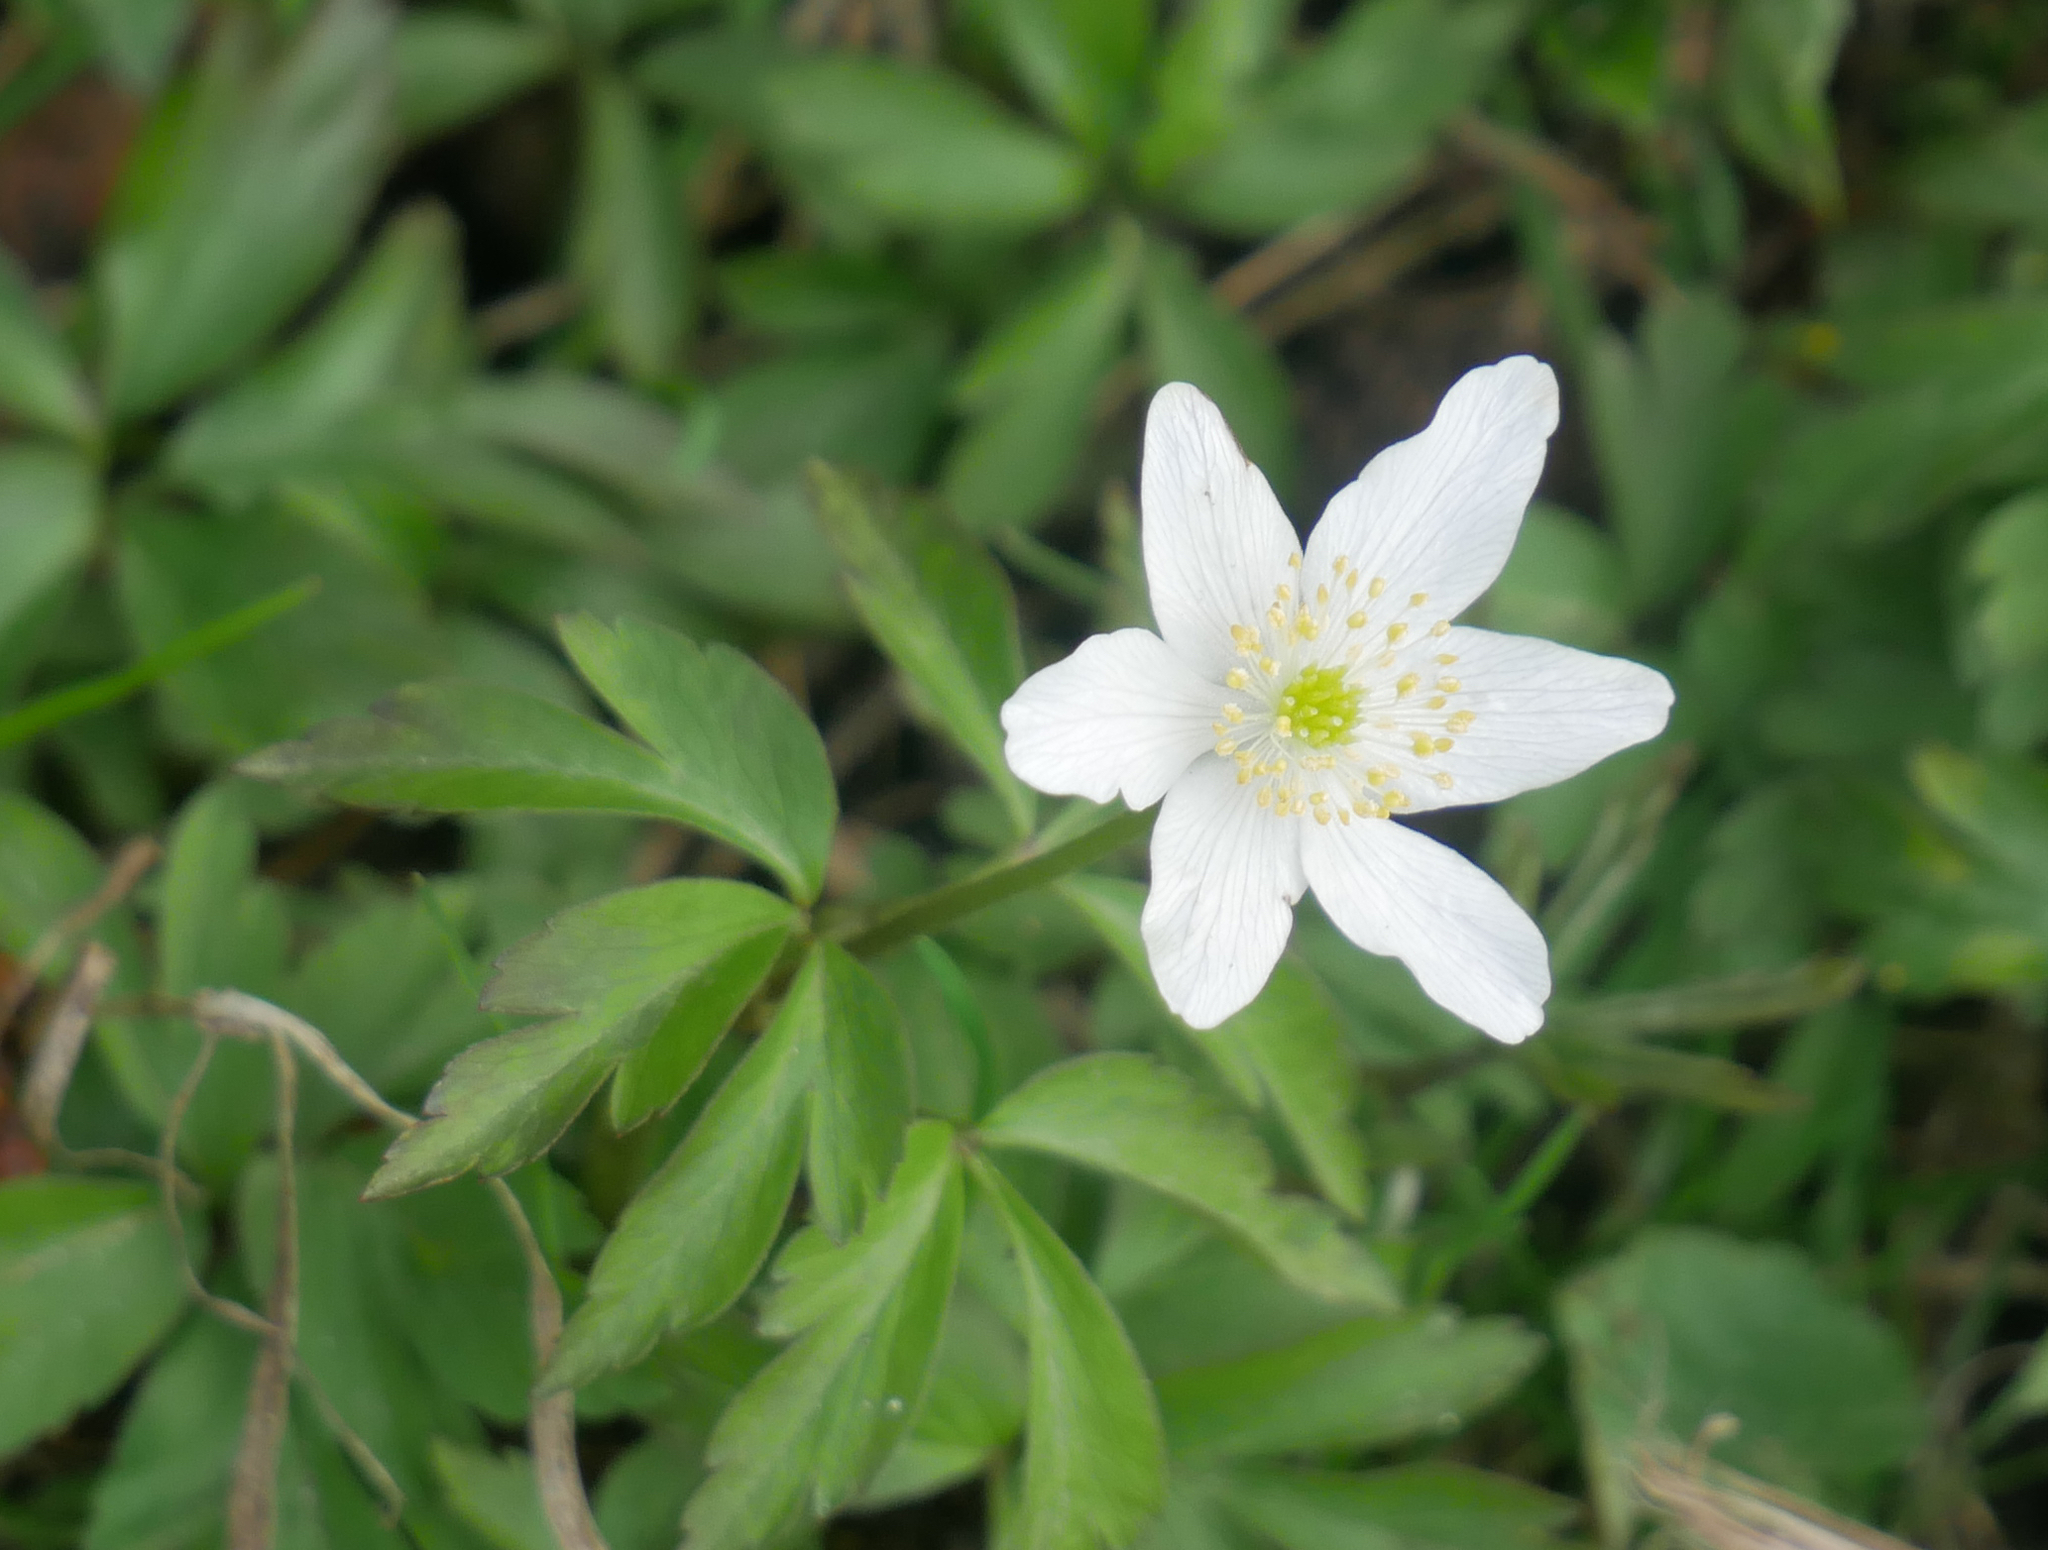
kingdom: Plantae
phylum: Tracheophyta
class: Magnoliopsida
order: Ranunculales
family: Ranunculaceae
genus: Anemone
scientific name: Anemone nemorosa
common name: Wood anemone
